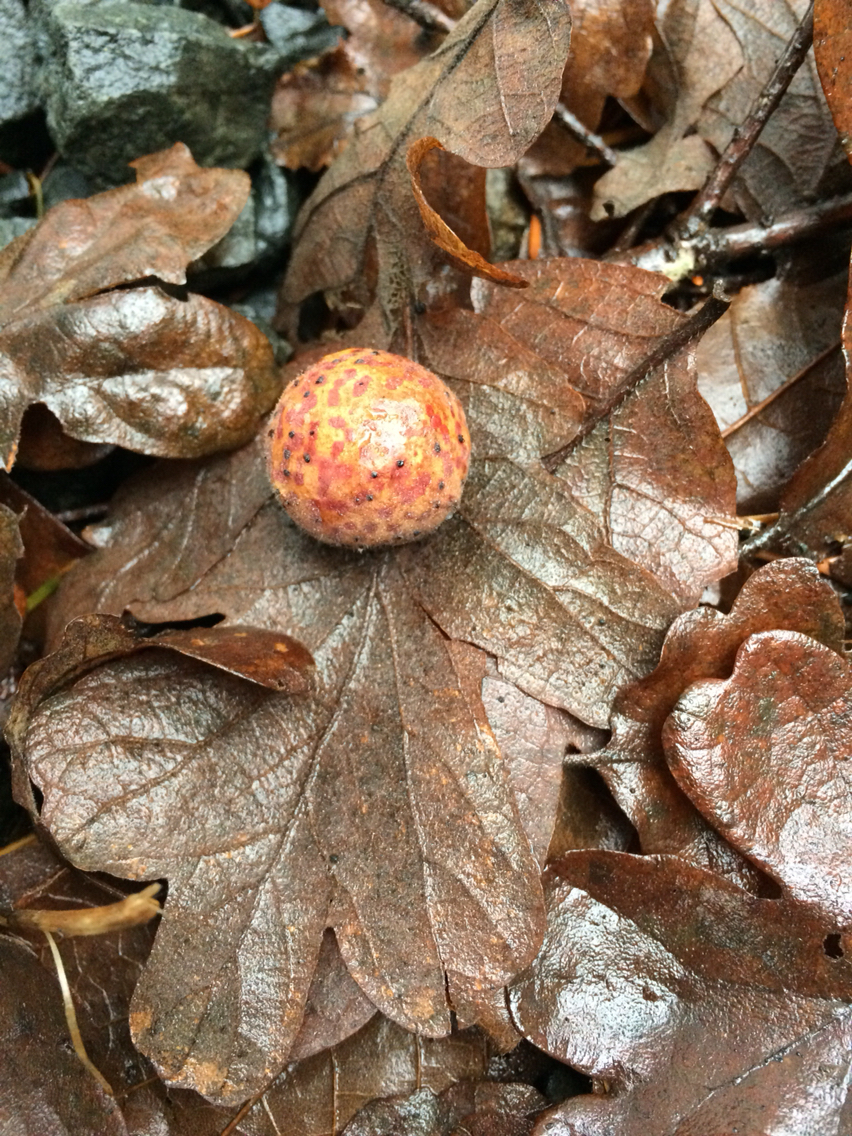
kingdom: Animalia
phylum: Arthropoda
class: Insecta
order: Hymenoptera
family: Cynipidae
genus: Cynips
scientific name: Cynips
